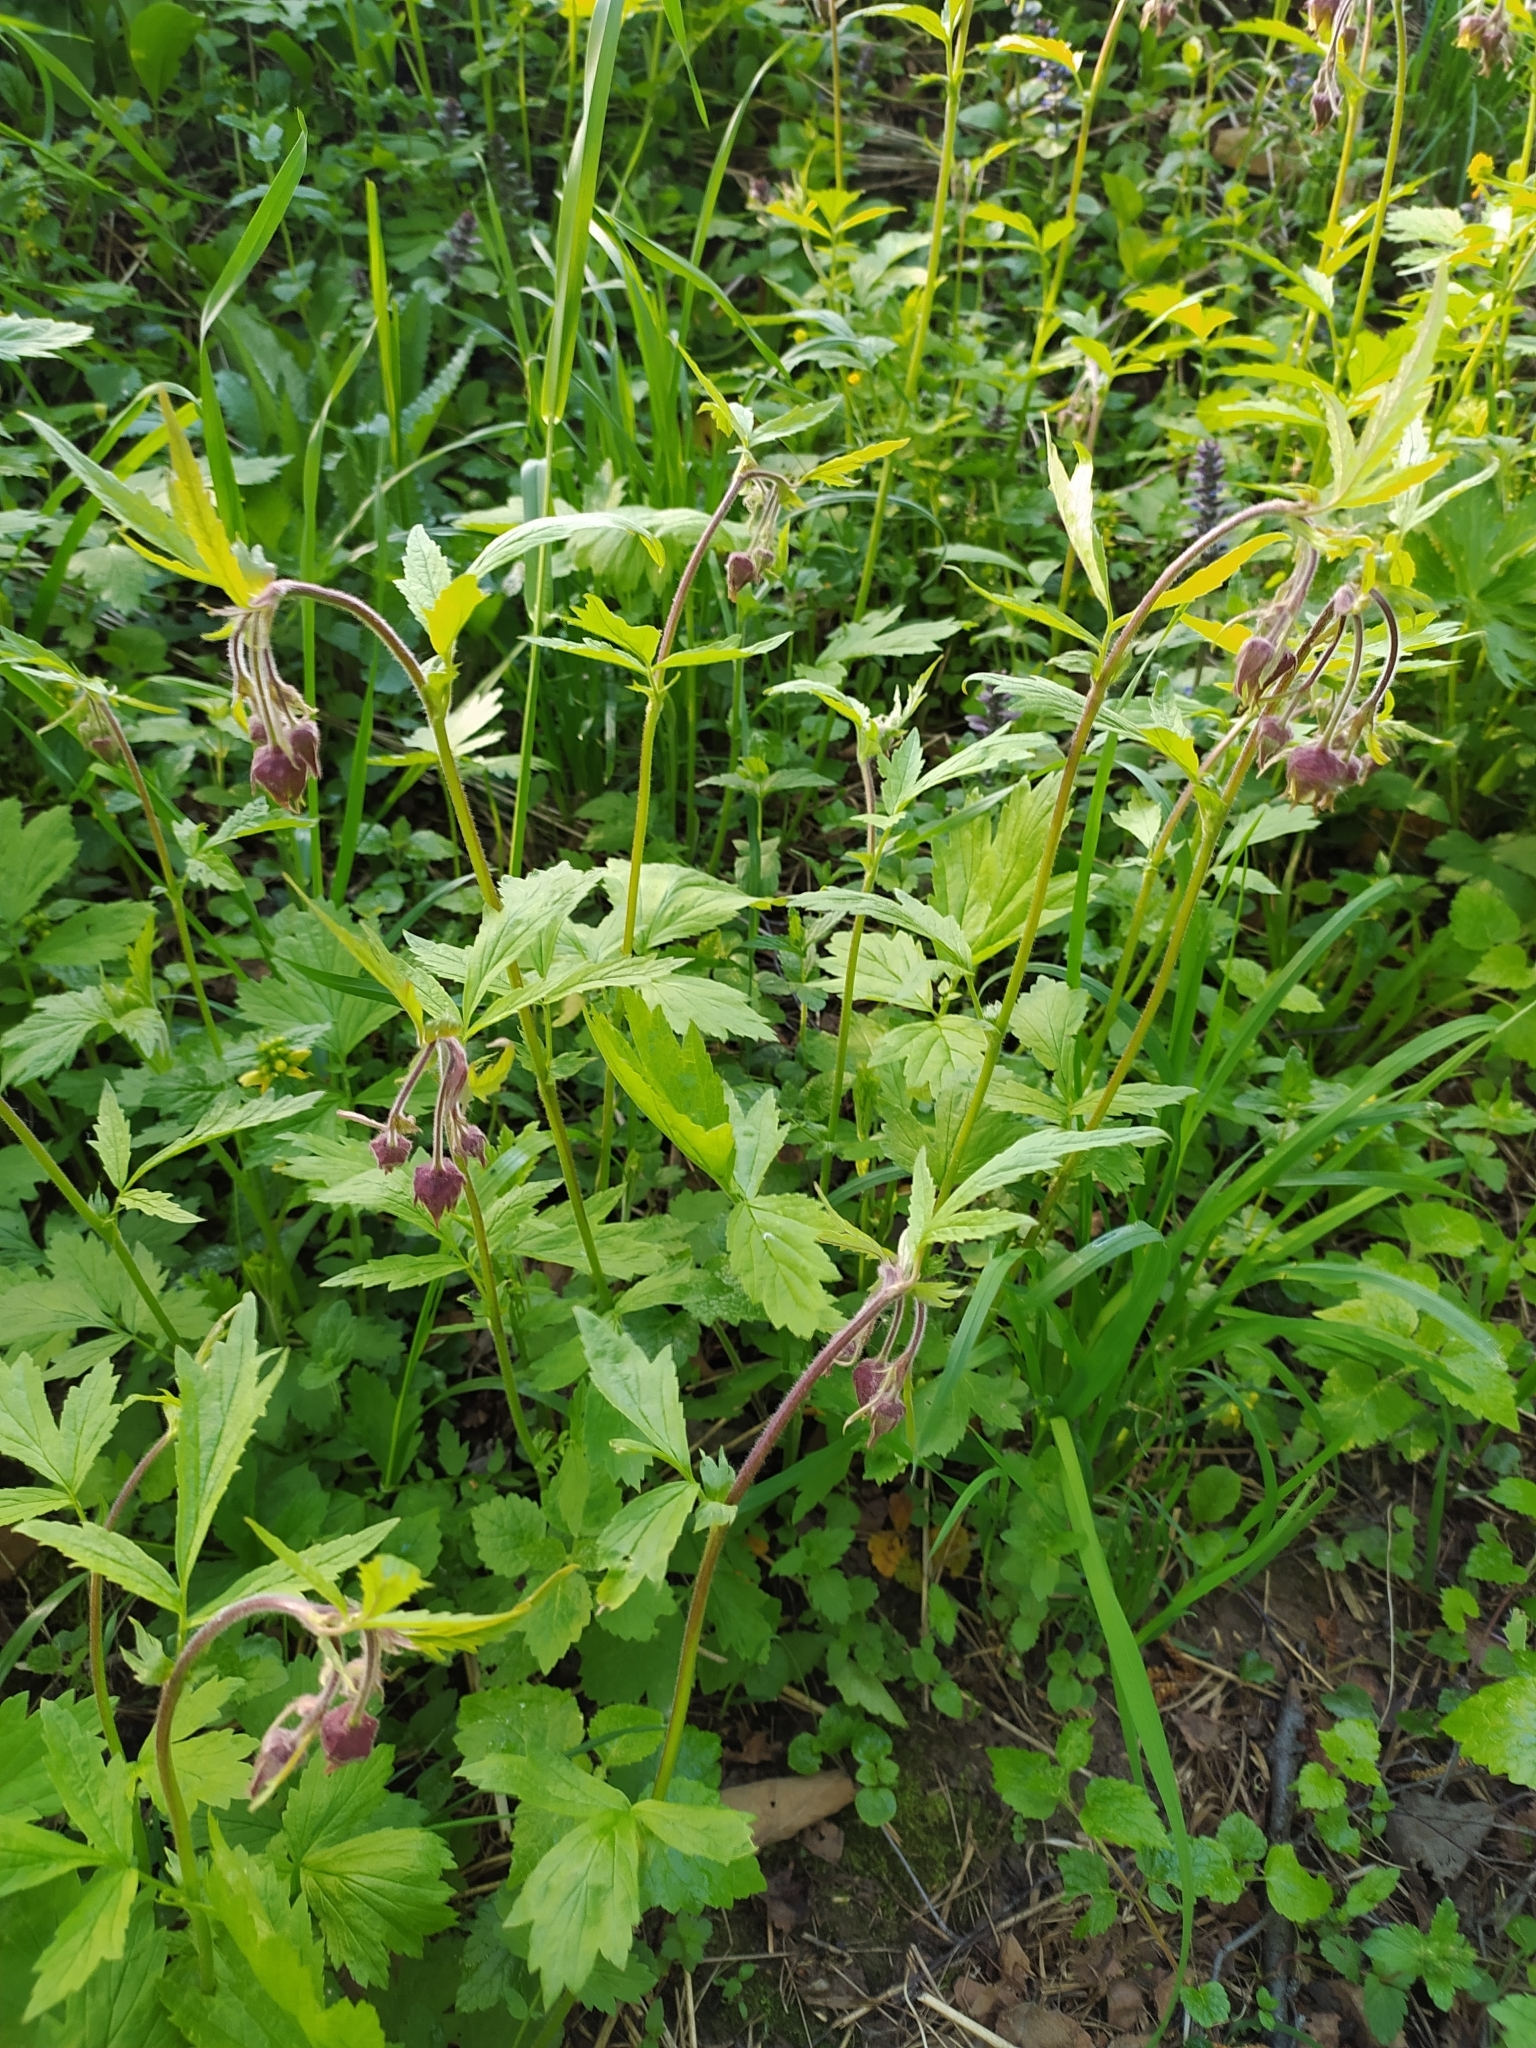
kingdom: Plantae
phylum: Tracheophyta
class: Magnoliopsida
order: Rosales
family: Rosaceae
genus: Geum
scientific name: Geum rivale
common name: Water avens
